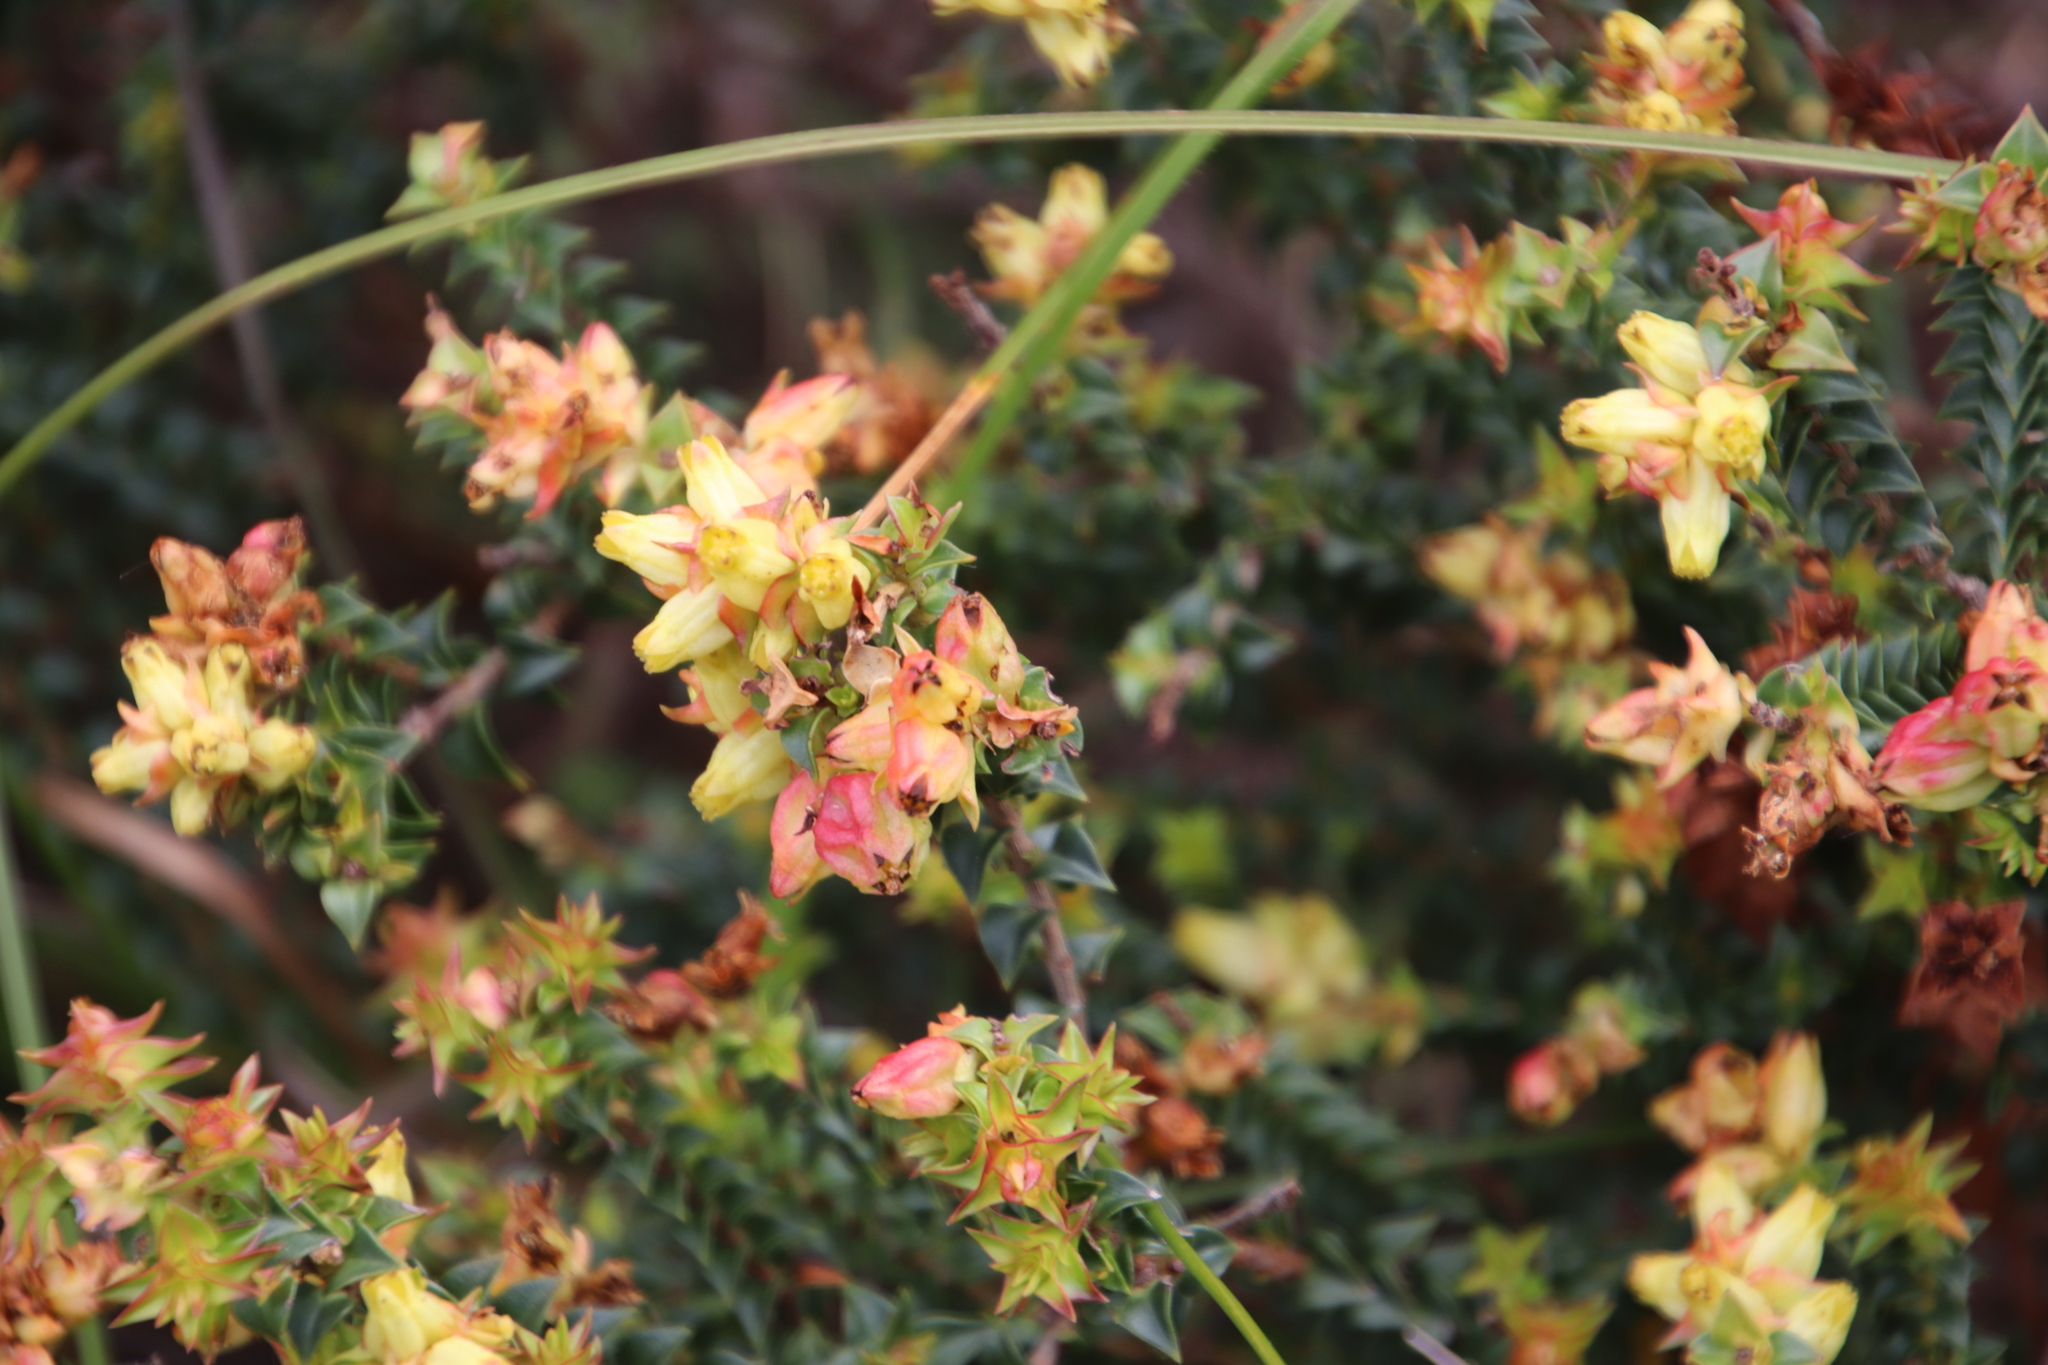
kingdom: Plantae
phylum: Tracheophyta
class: Magnoliopsida
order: Myrtales
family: Penaeaceae
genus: Penaea
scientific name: Penaea mucronata
